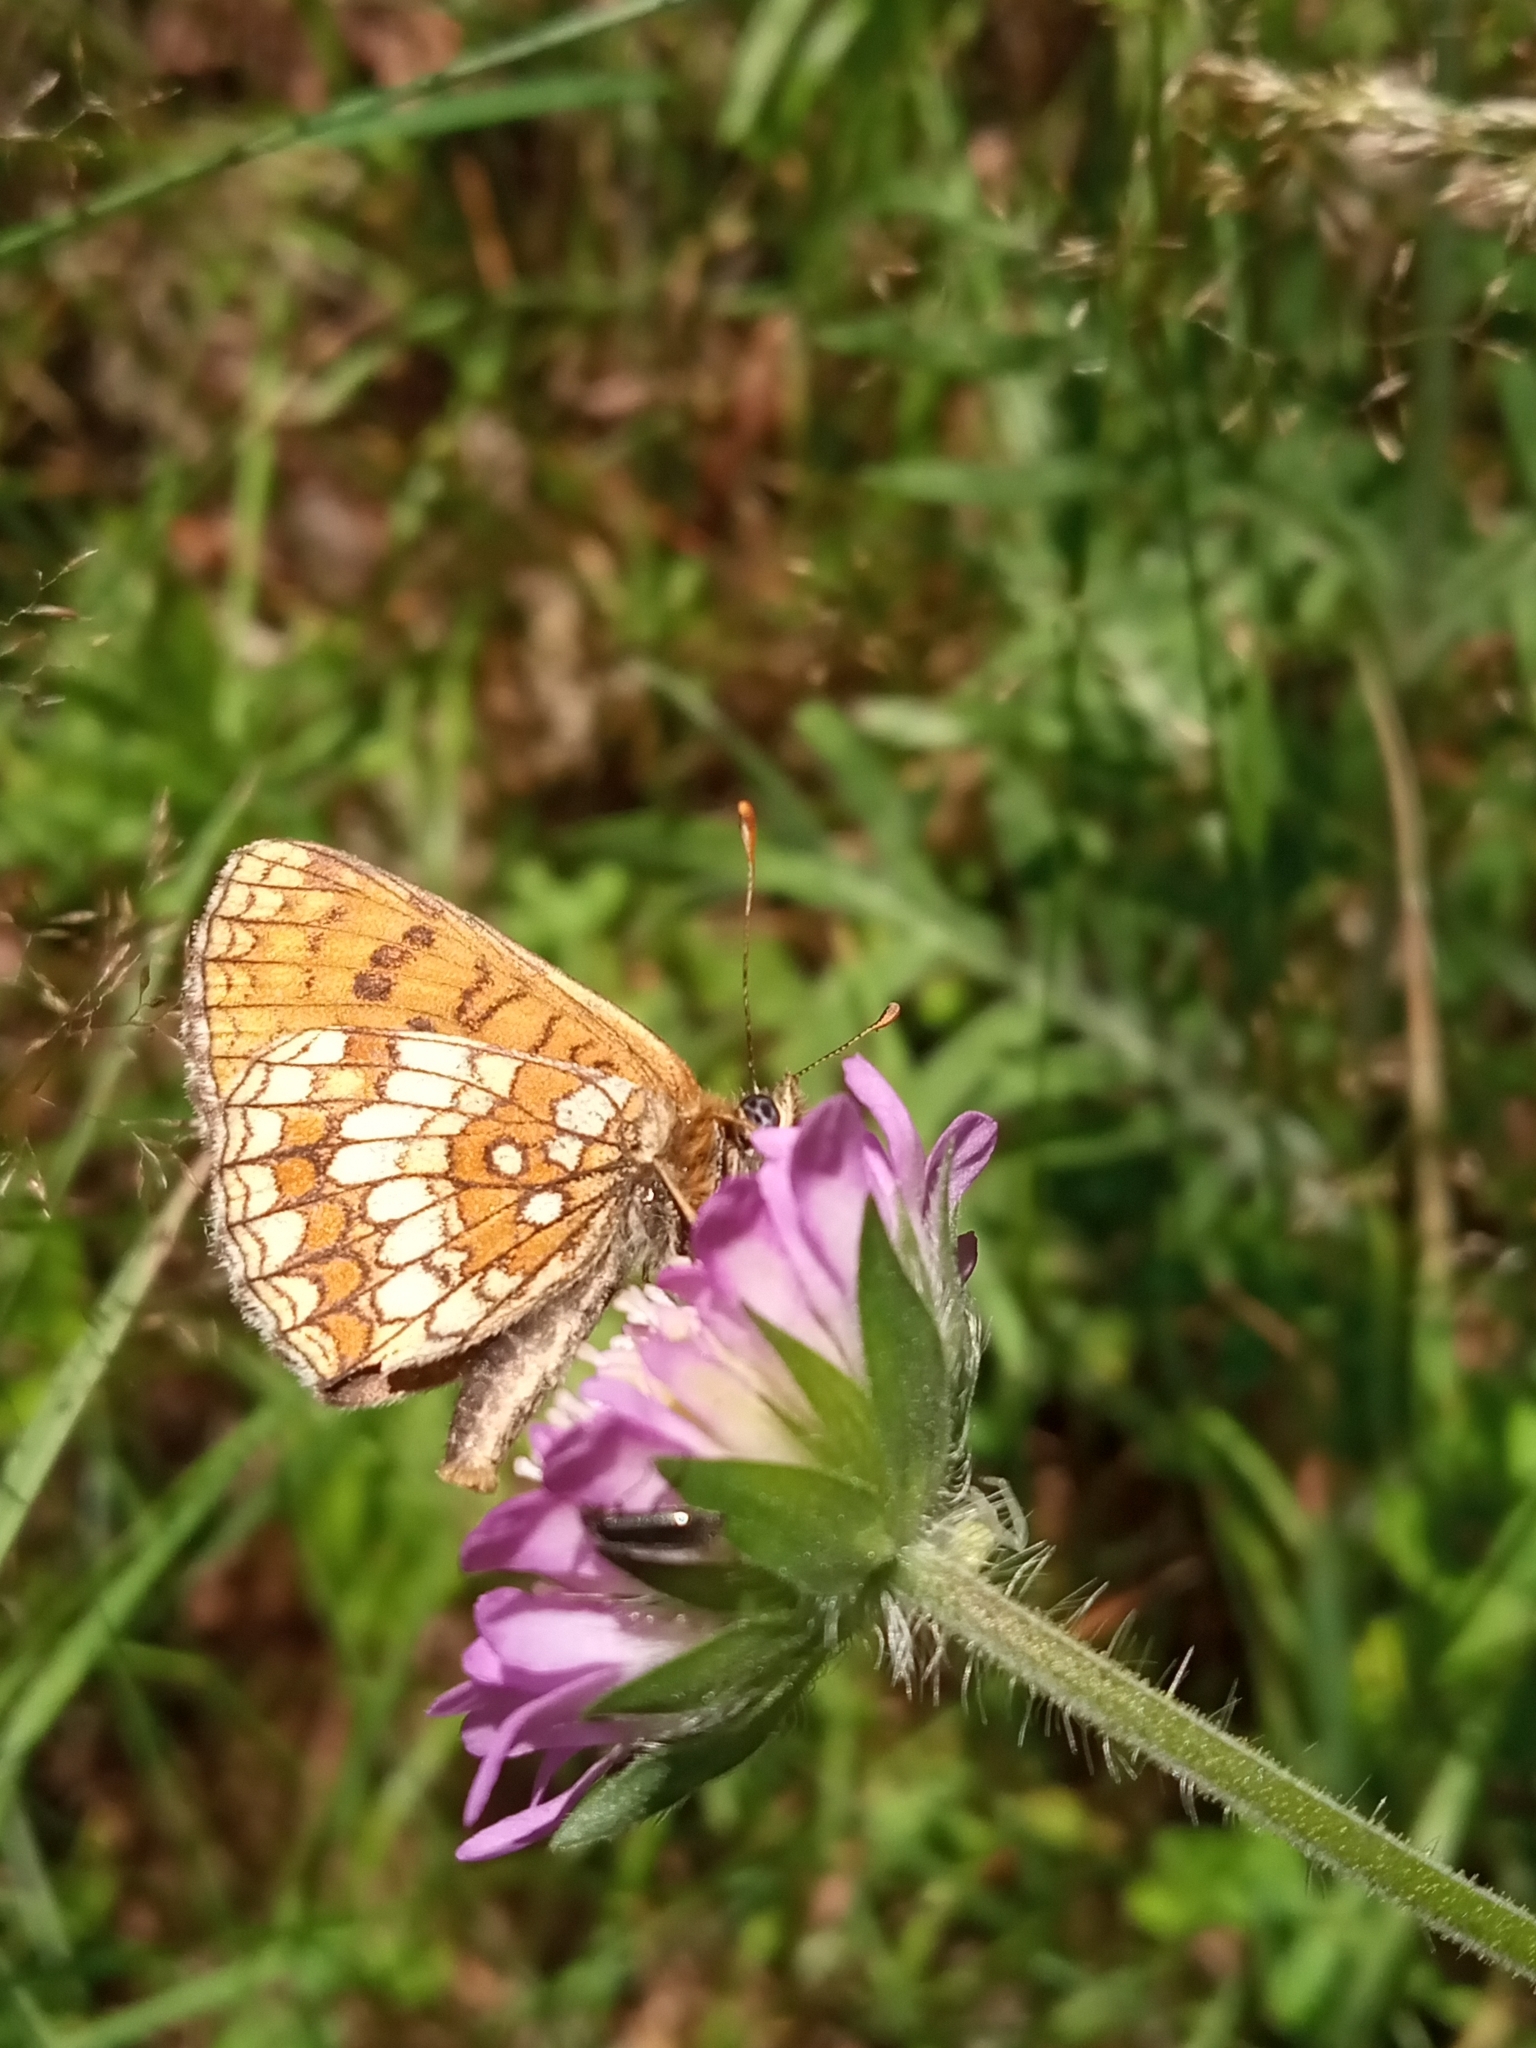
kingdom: Animalia
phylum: Arthropoda
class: Insecta
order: Lepidoptera
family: Nymphalidae
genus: Melitaea
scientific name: Melitaea athalia
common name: Heath fritillary
